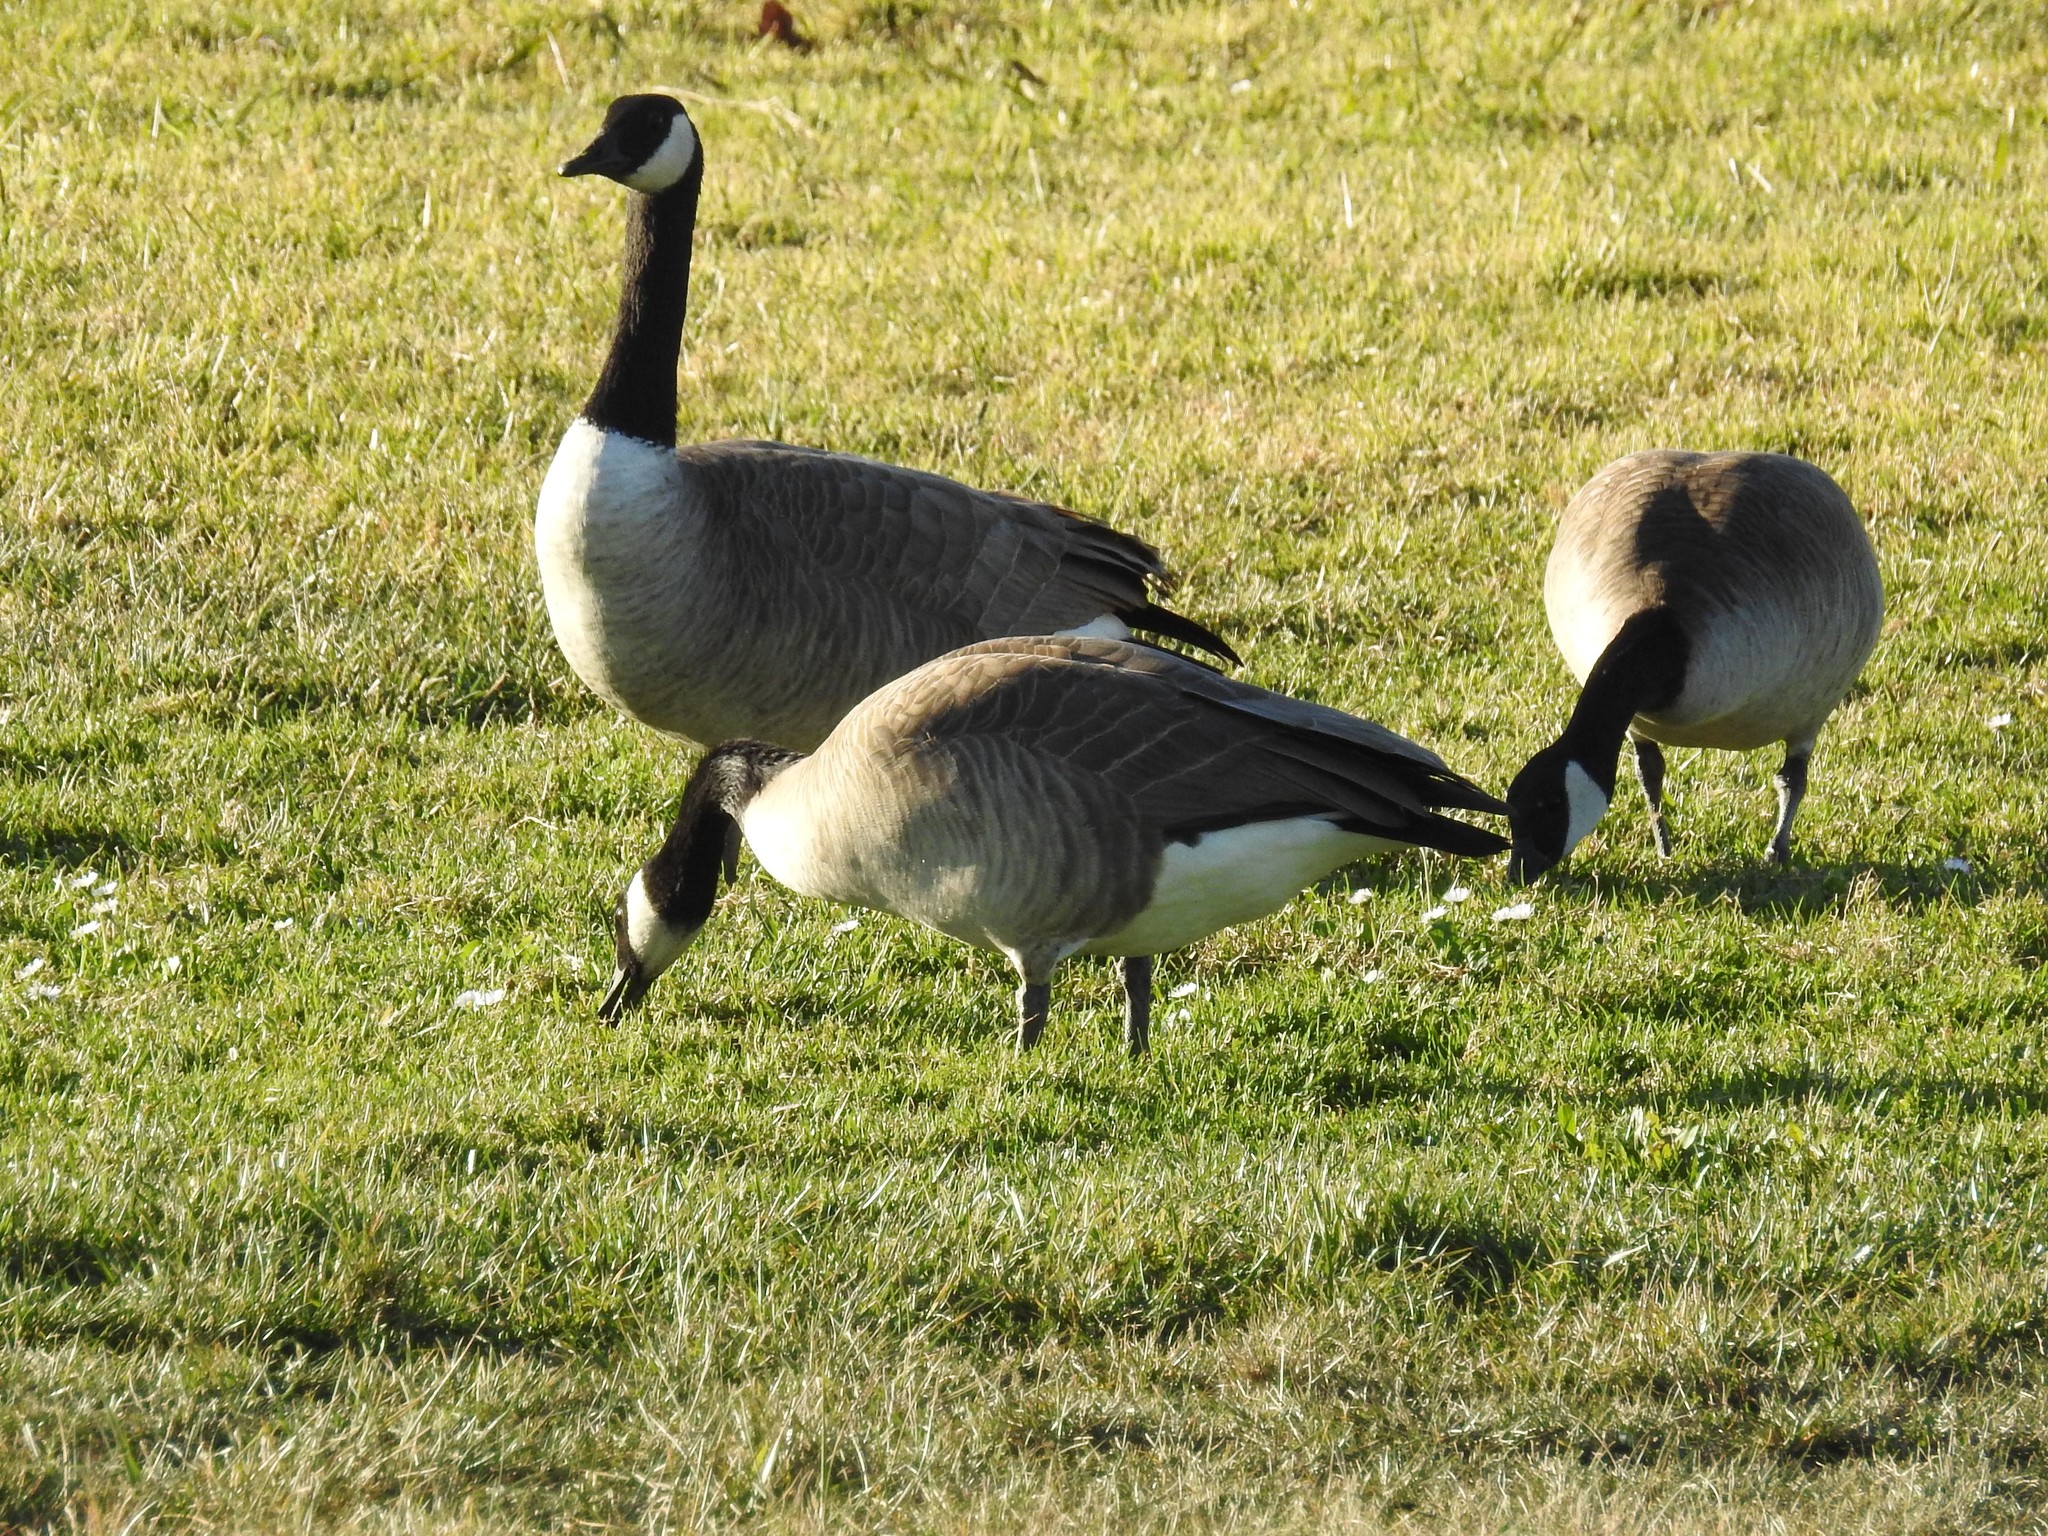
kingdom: Animalia
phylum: Chordata
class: Aves
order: Anseriformes
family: Anatidae
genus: Branta
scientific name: Branta canadensis
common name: Canada goose
